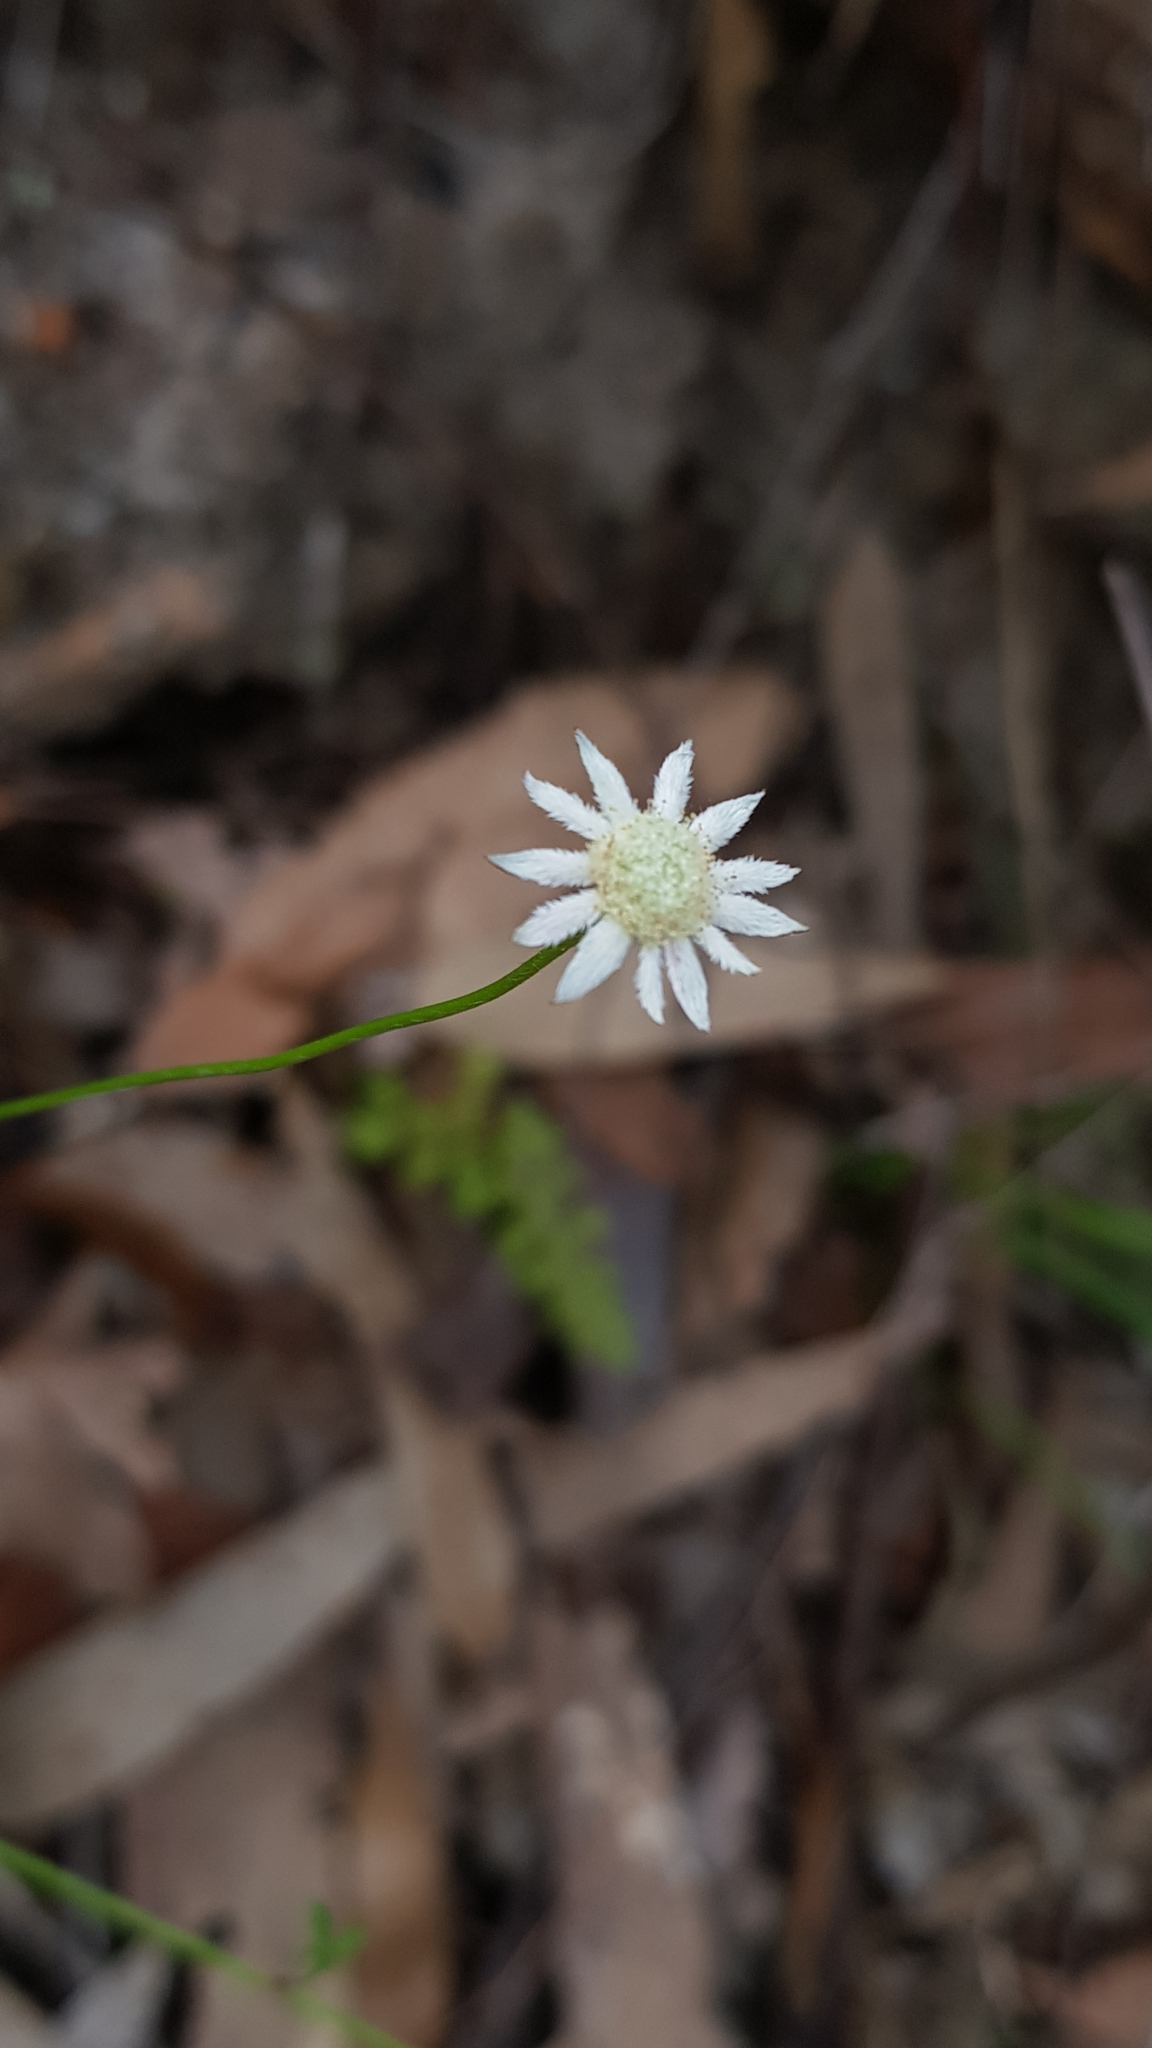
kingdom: Plantae
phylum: Tracheophyta
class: Magnoliopsida
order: Apiales
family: Apiaceae
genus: Actinotus
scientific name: Actinotus minor
